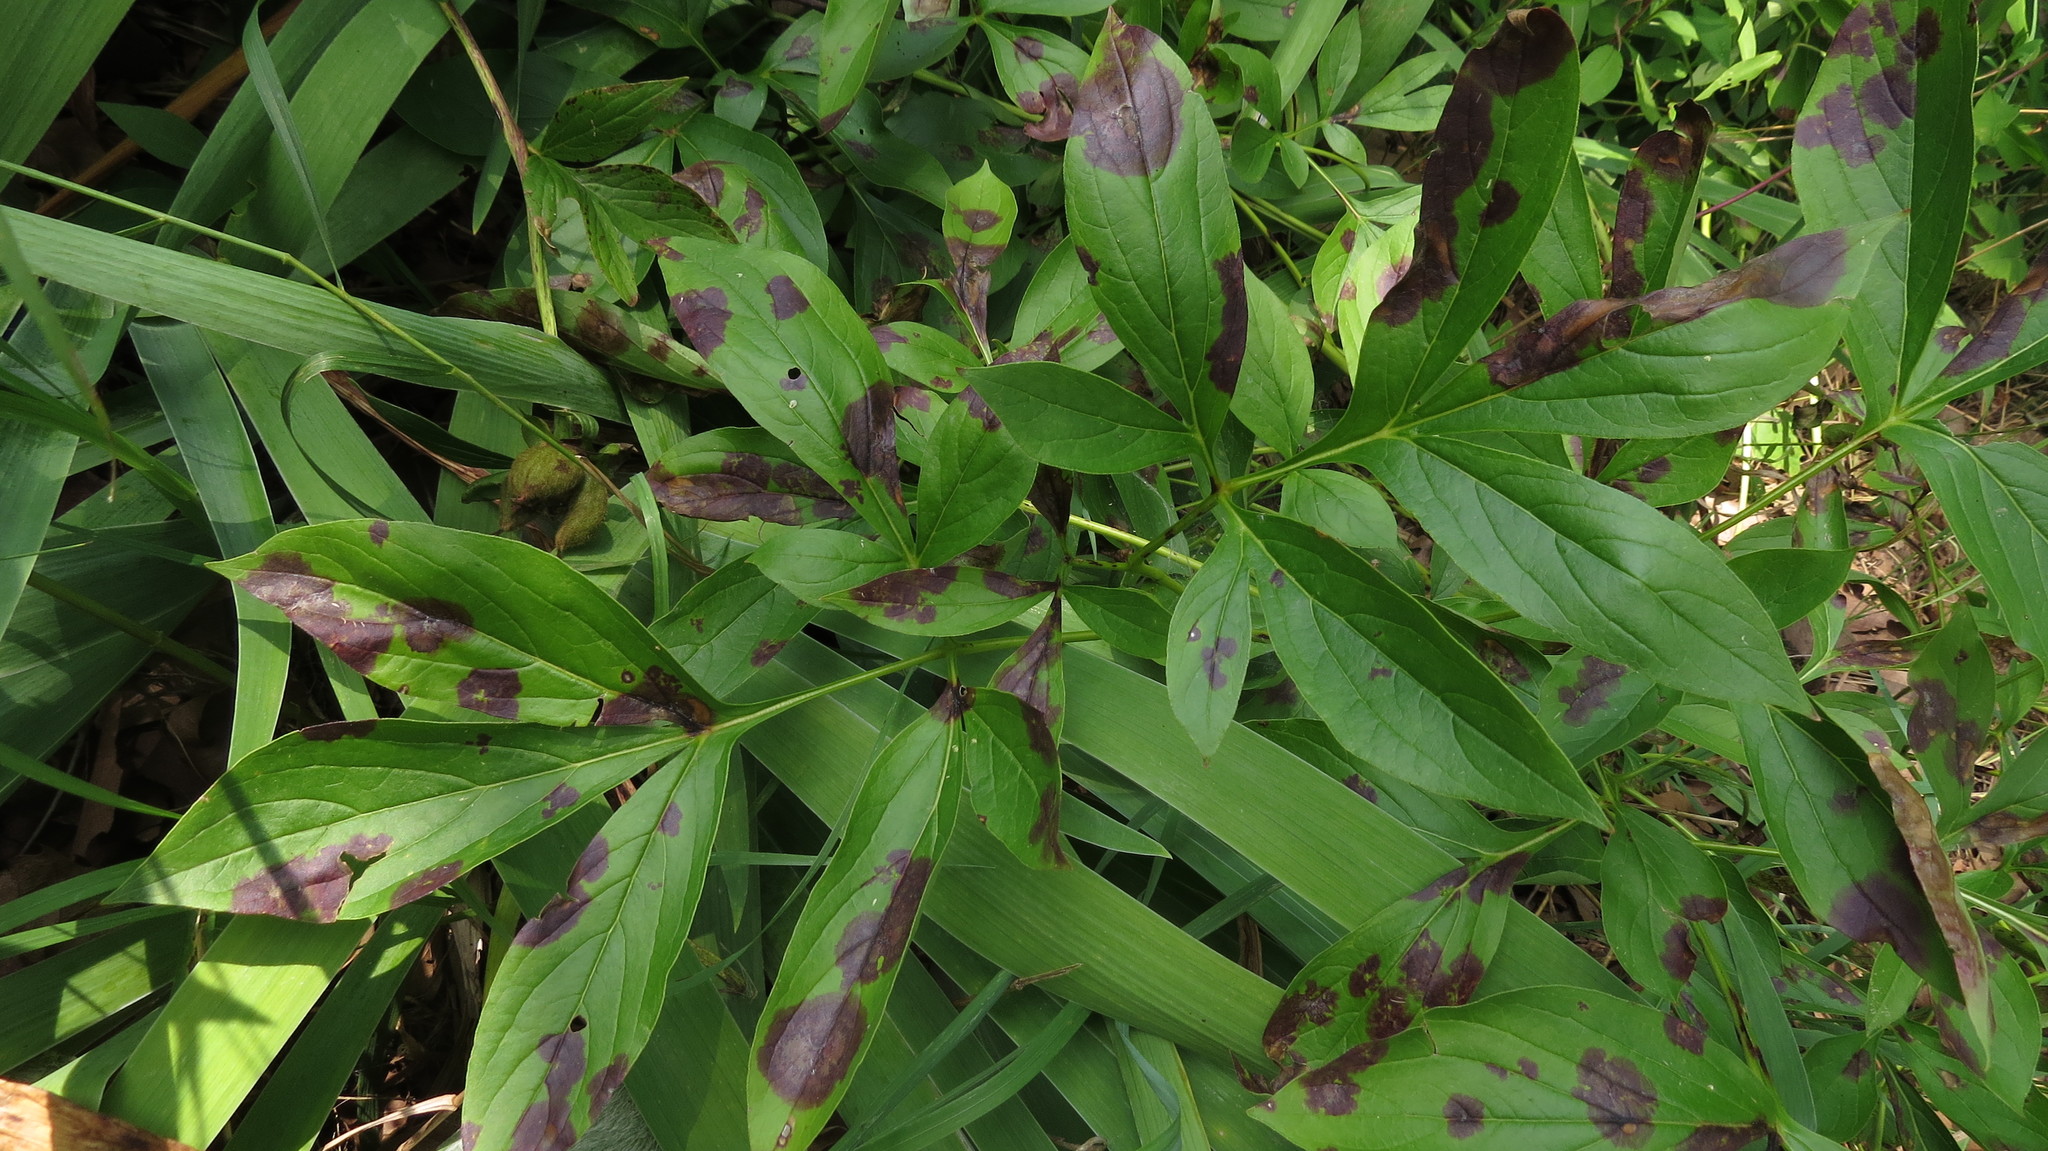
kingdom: Fungi
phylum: Ascomycota
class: Dothideomycetes
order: Capnodiales
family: Davidiellaceae
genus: Dichocladosporium
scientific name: Dichocladosporium chlorocephalum
